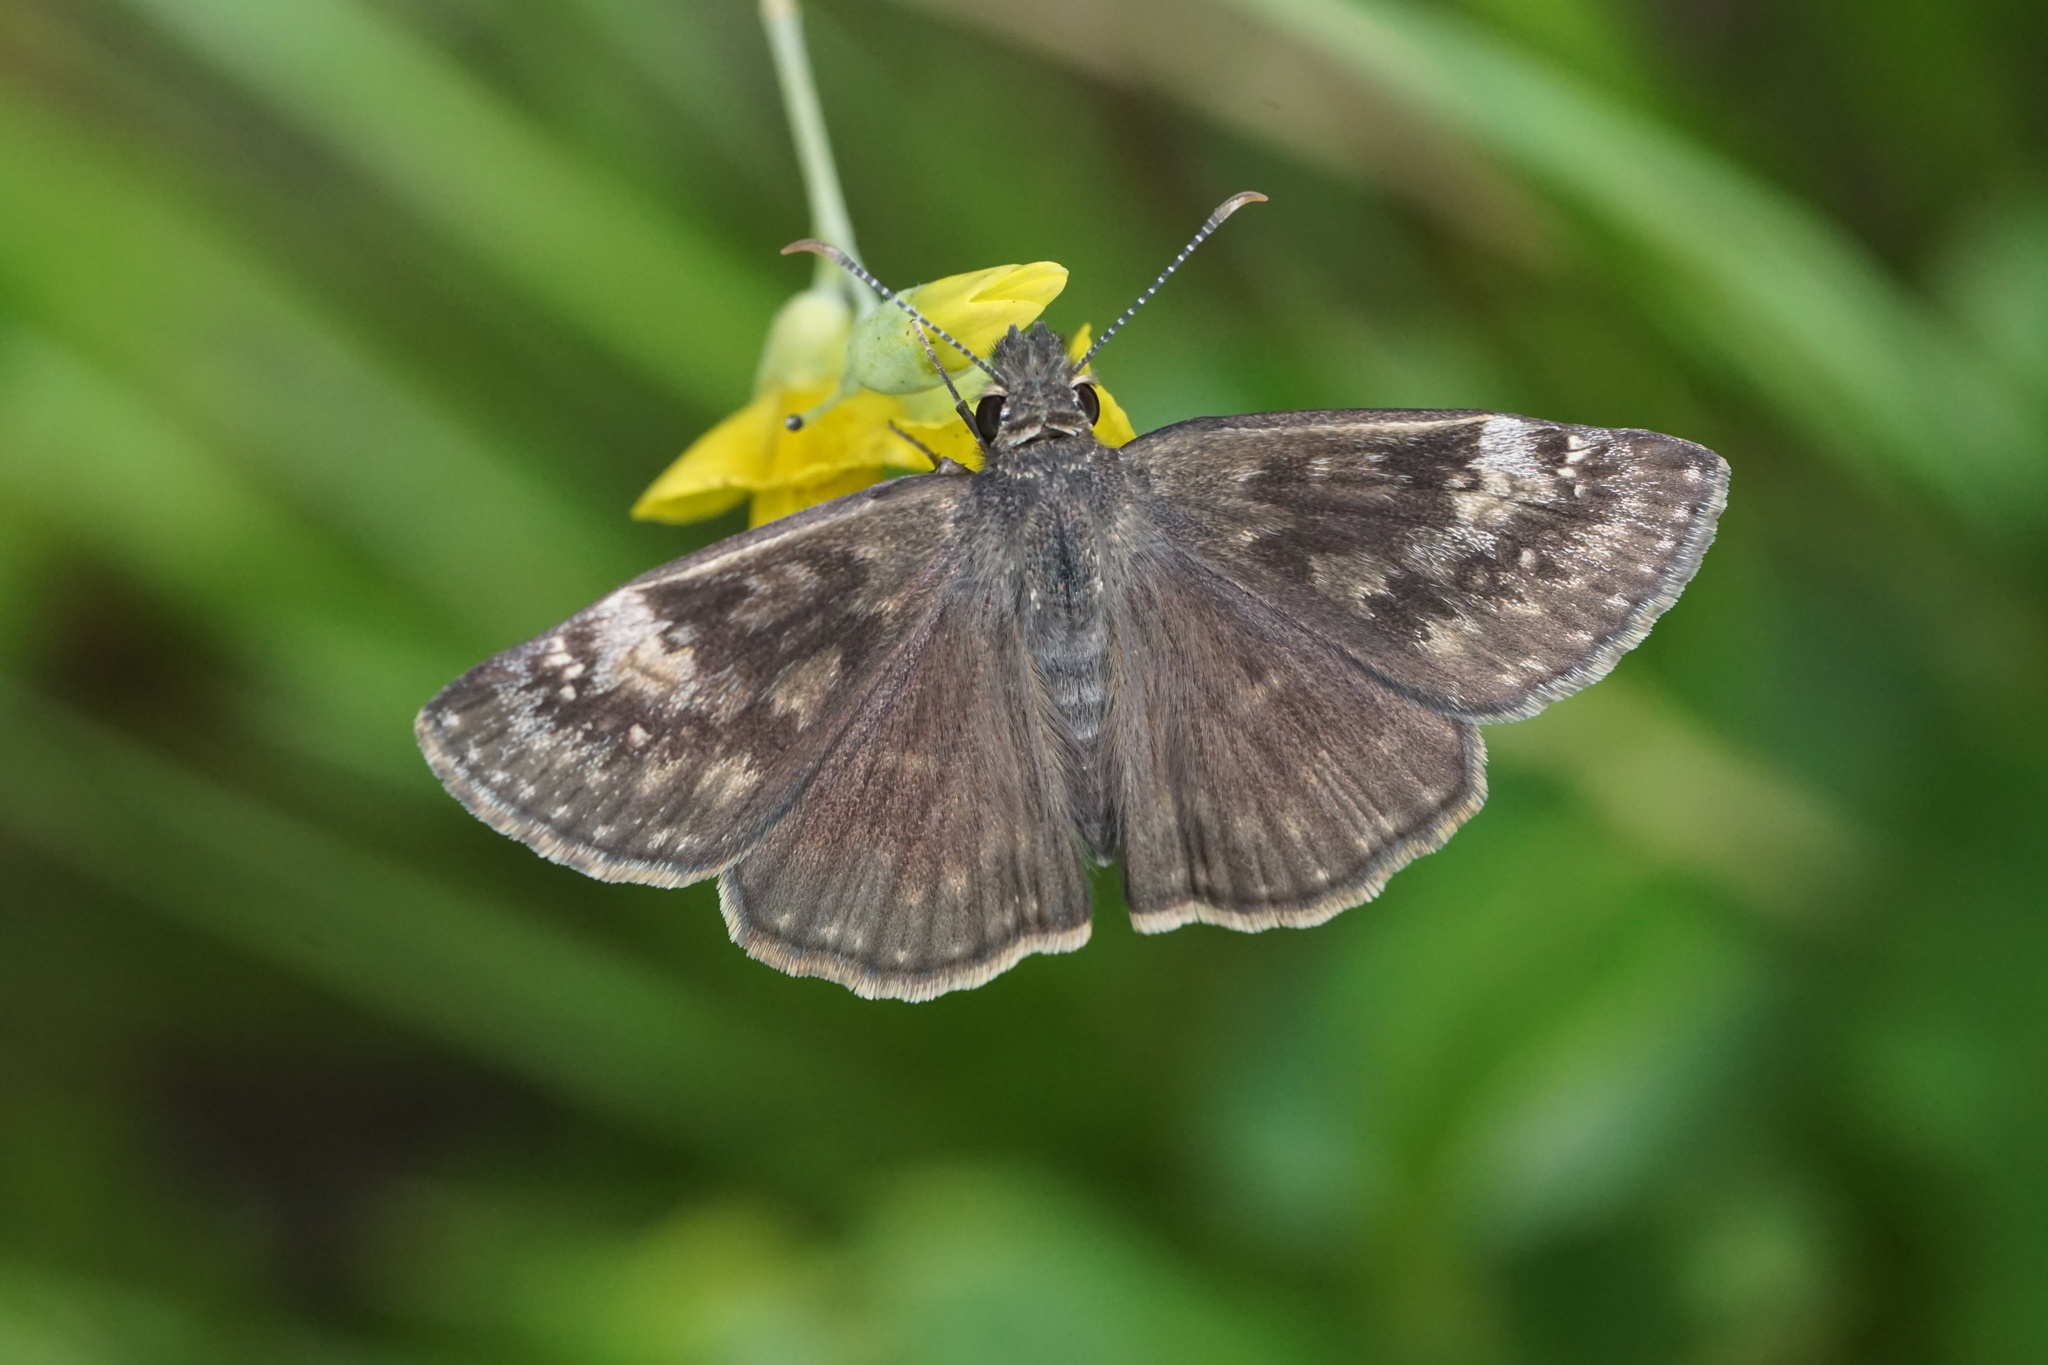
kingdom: Animalia
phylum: Arthropoda
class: Insecta
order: Lepidoptera
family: Hesperiidae
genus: Erynnis
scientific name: Erynnis baptisiae
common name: Wild indigo duskywing
